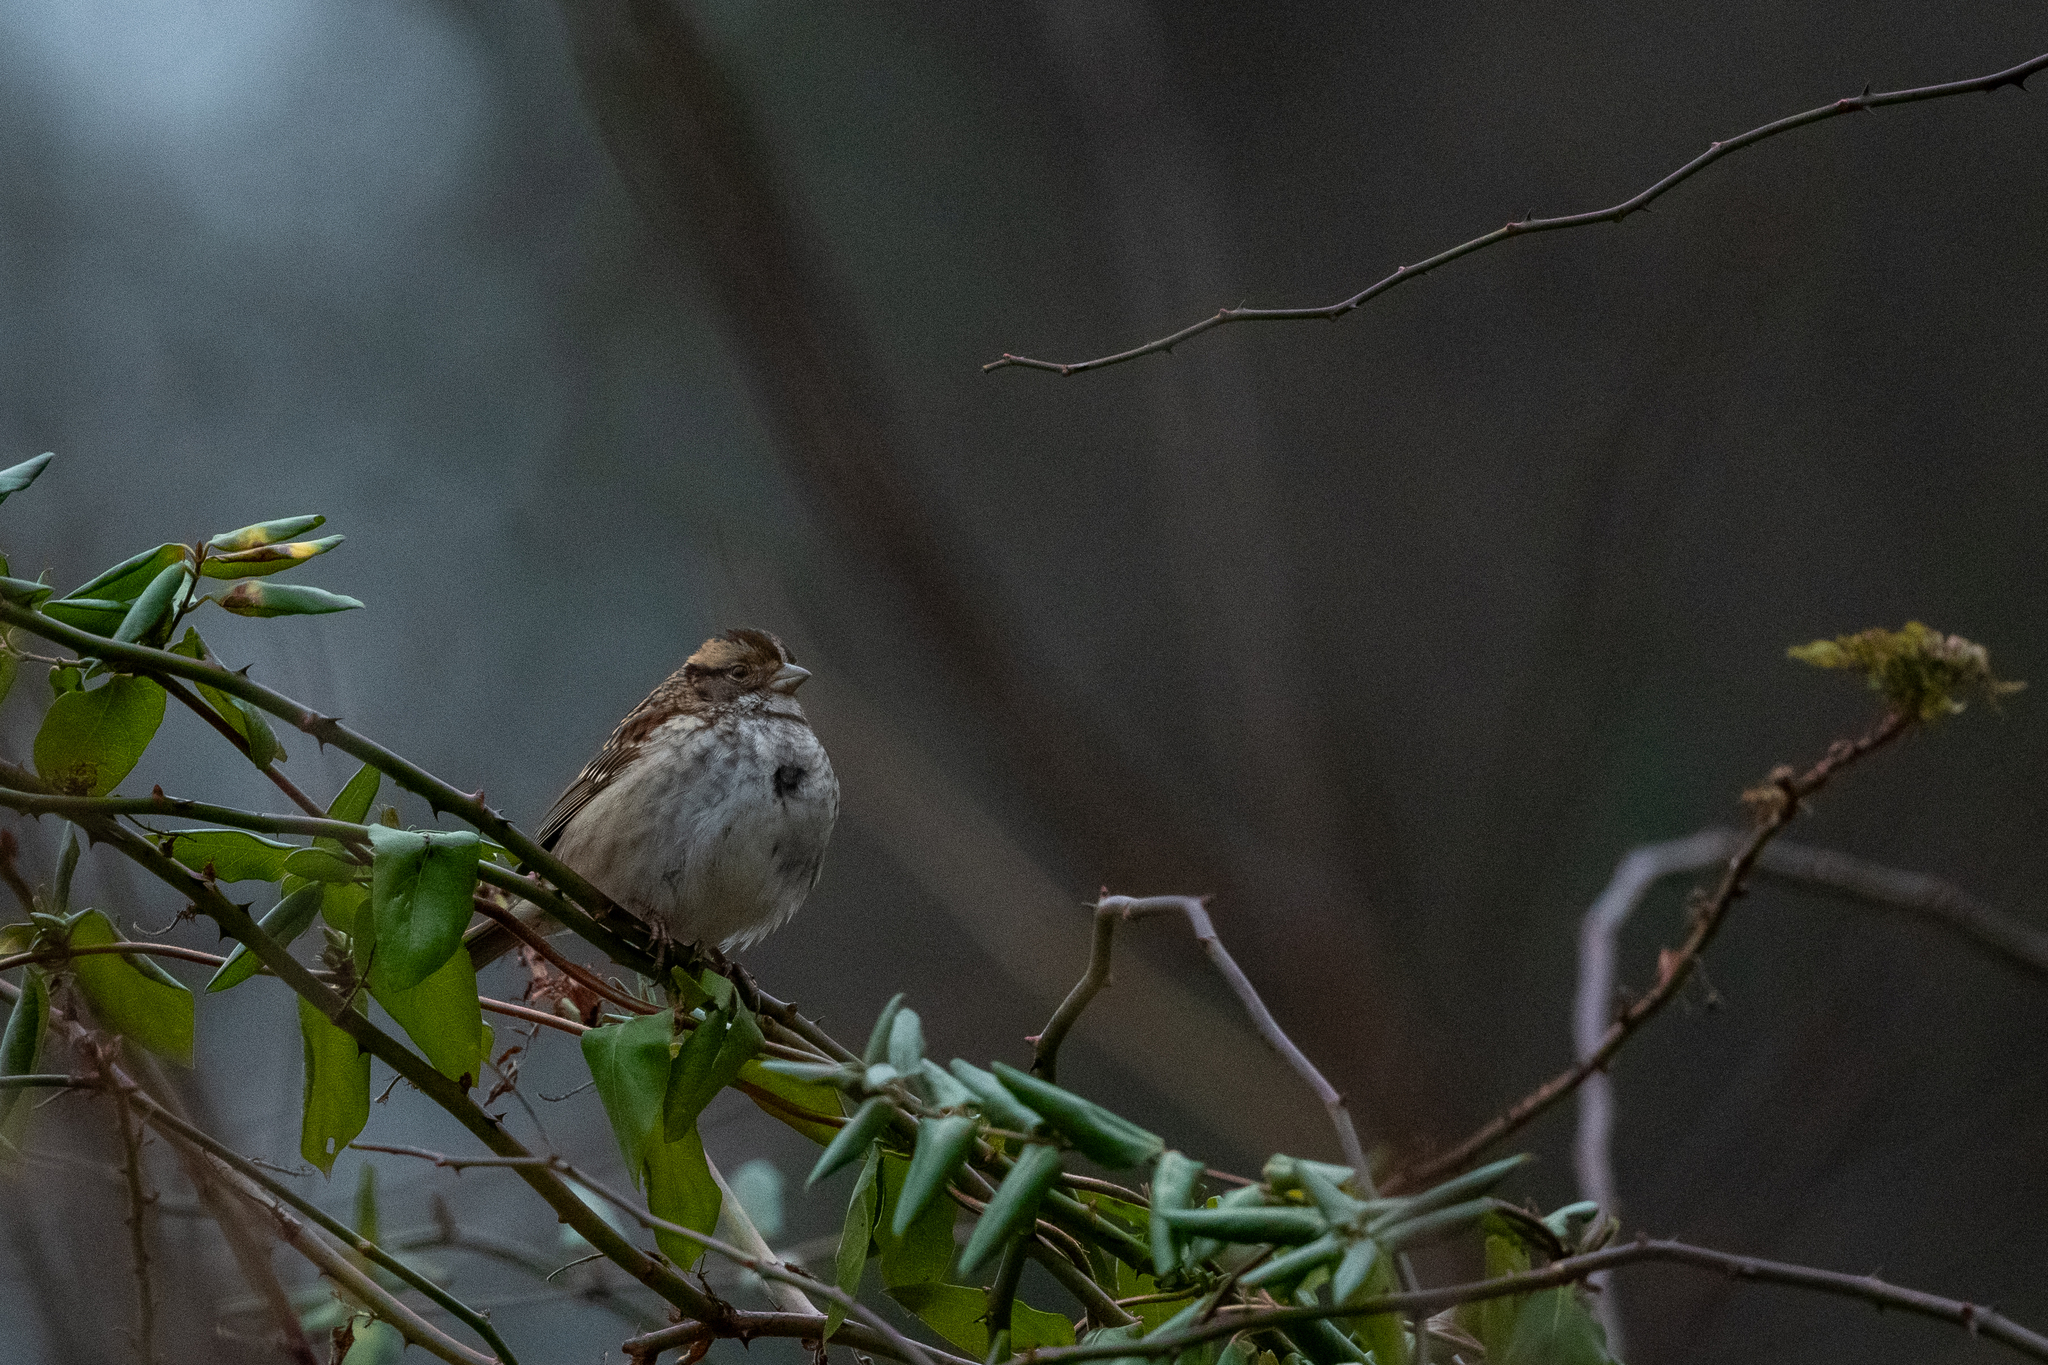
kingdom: Animalia
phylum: Chordata
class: Aves
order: Passeriformes
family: Passerellidae
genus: Zonotrichia
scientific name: Zonotrichia albicollis
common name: White-throated sparrow
